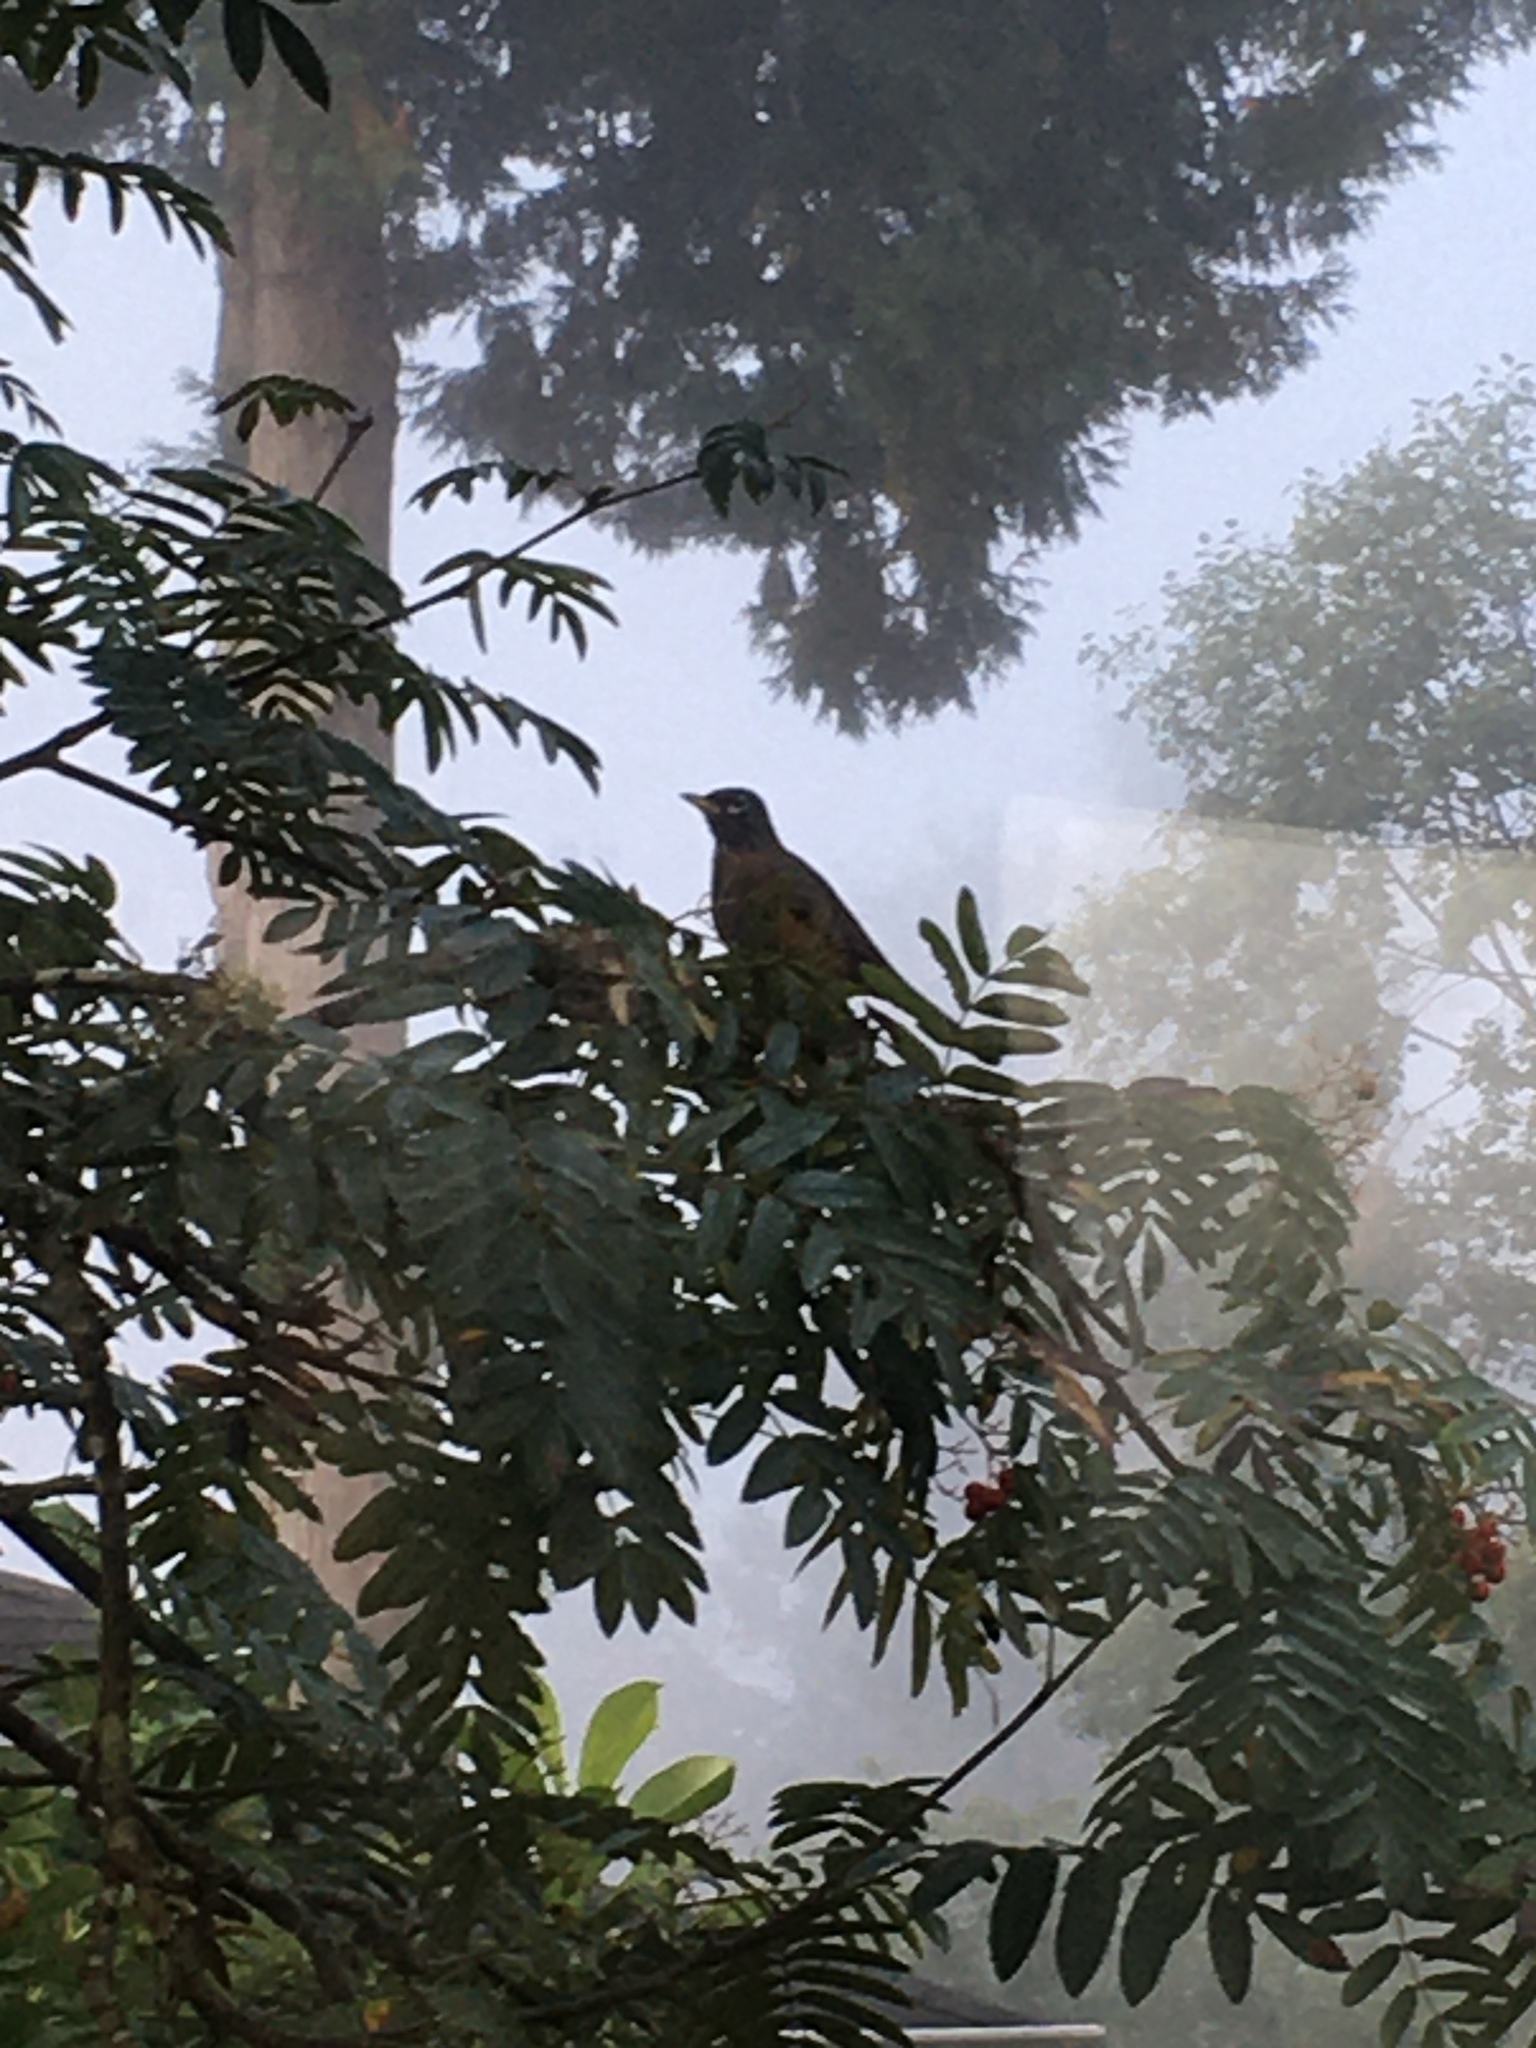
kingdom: Animalia
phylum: Chordata
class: Aves
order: Passeriformes
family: Turdidae
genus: Turdus
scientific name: Turdus migratorius
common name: American robin
